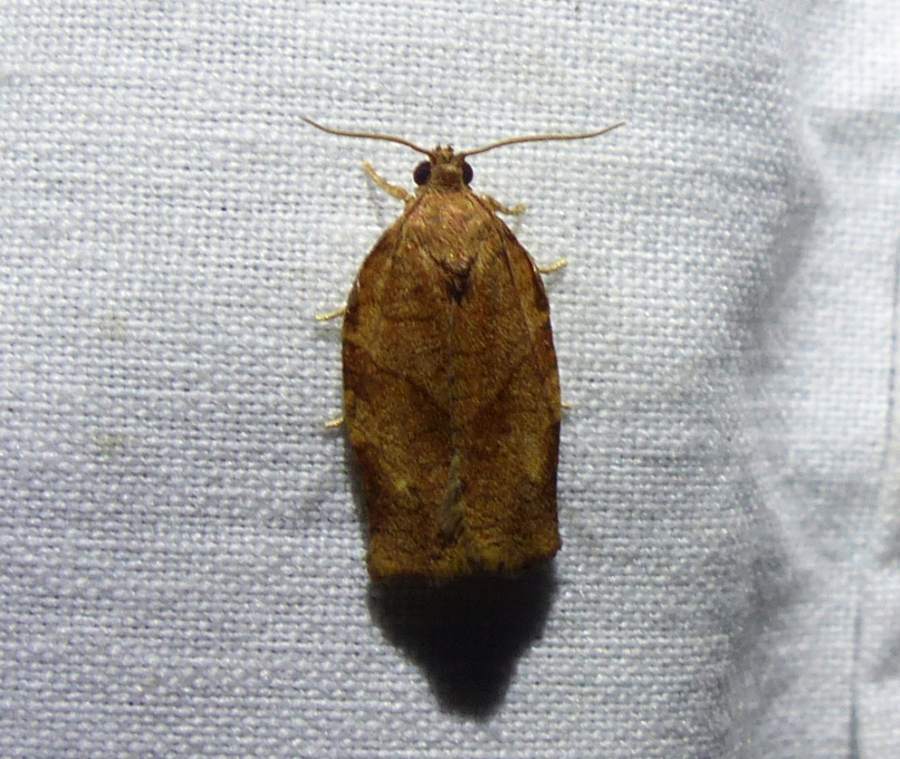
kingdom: Animalia
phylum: Arthropoda
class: Insecta
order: Lepidoptera
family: Tortricidae
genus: Choristoneura
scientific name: Choristoneura rosaceana
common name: Oblique-banded leafroller moth
